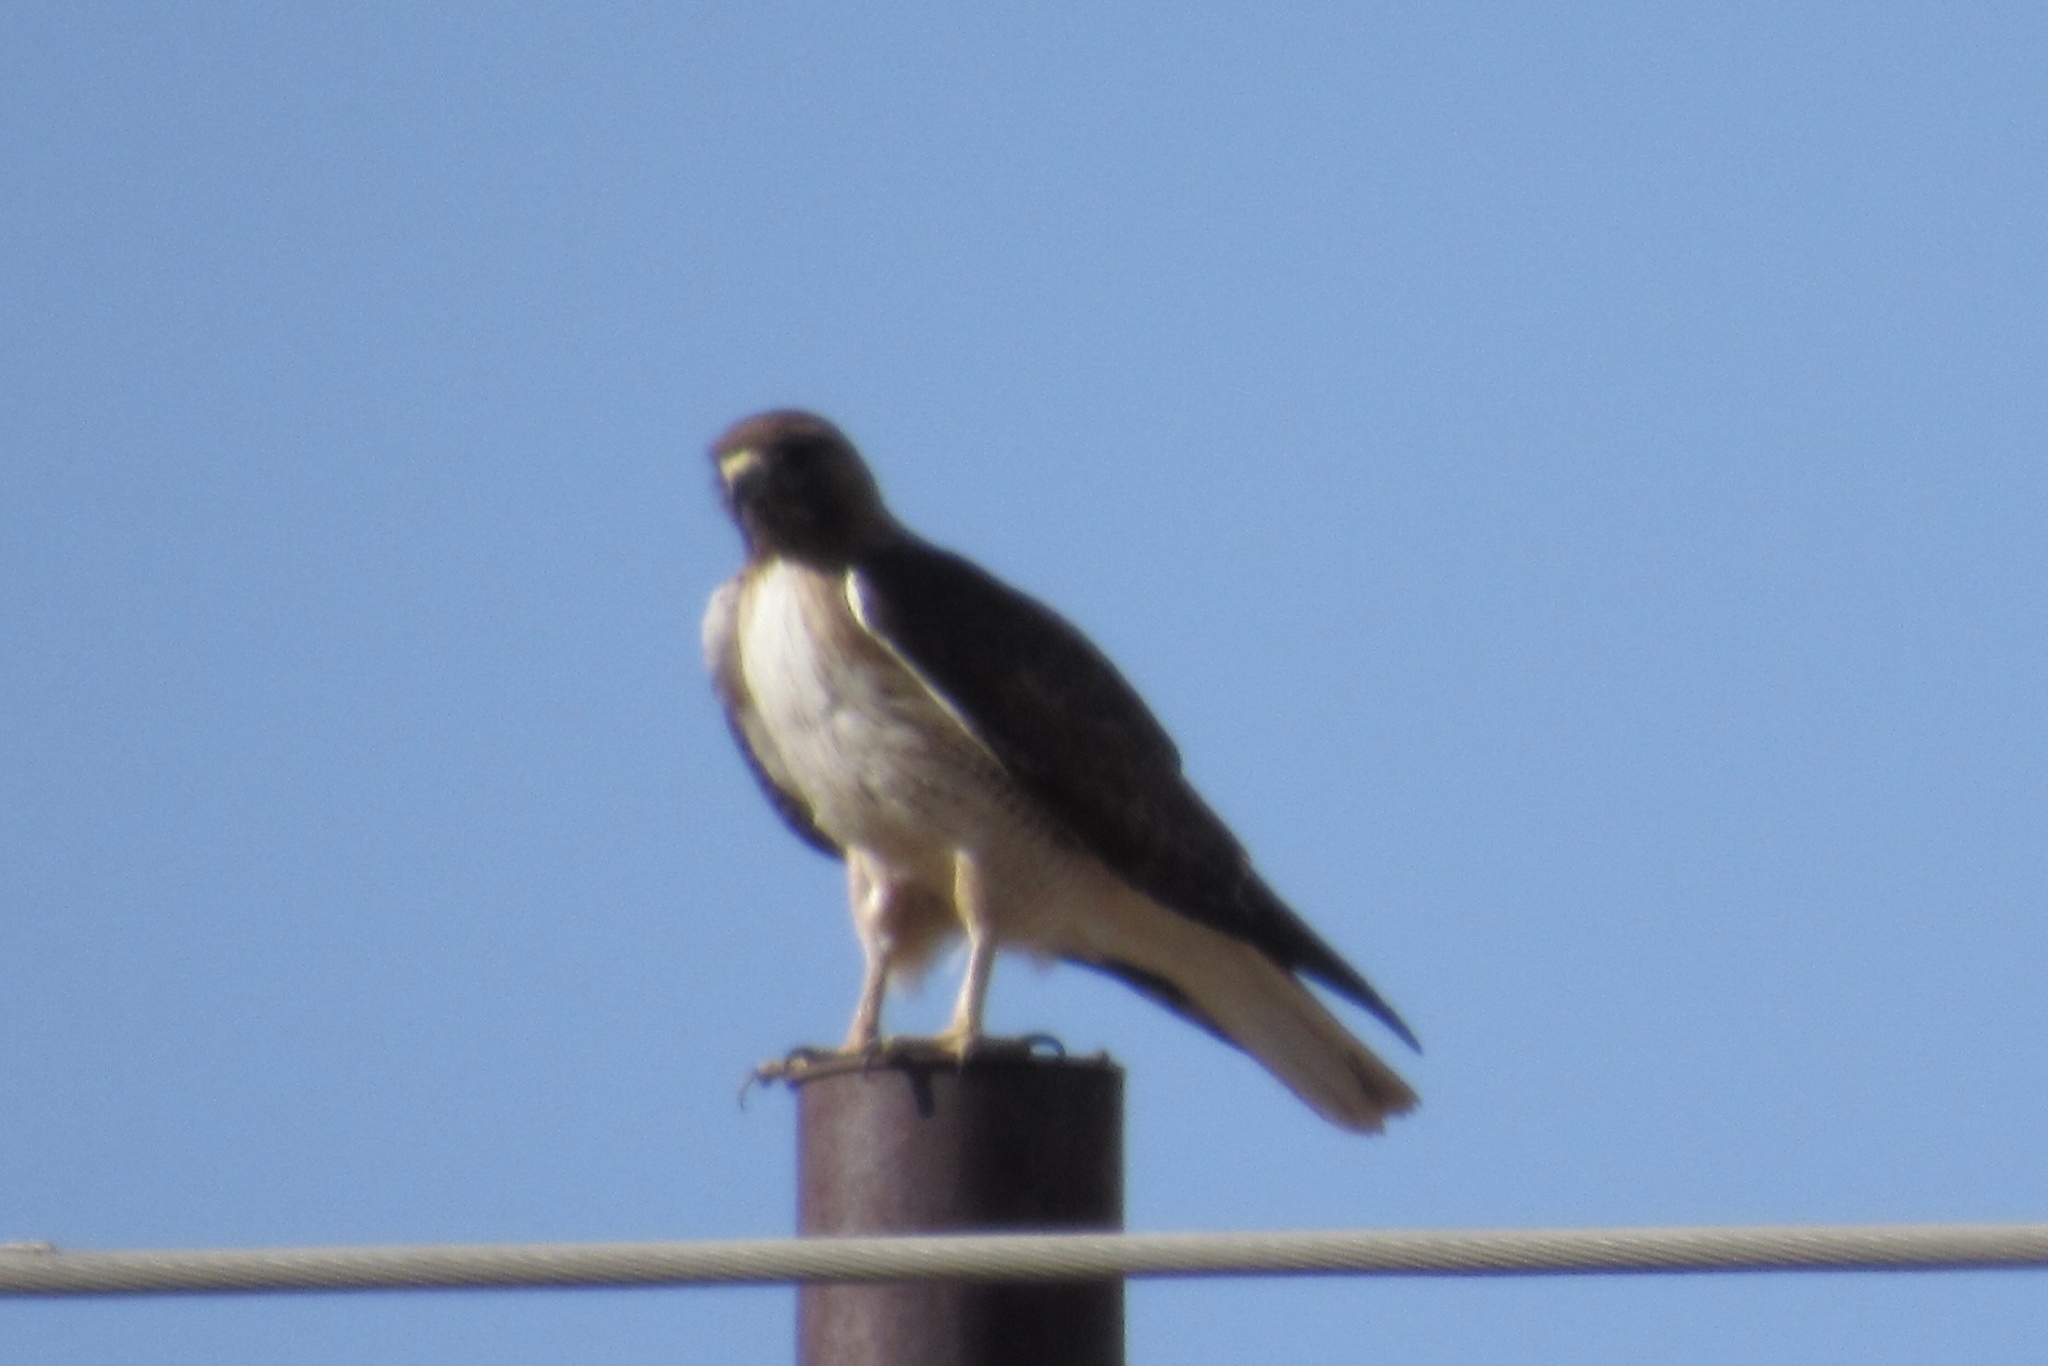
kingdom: Animalia
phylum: Chordata
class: Aves
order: Accipitriformes
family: Accipitridae
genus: Buteo
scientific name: Buteo jamaicensis
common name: Red-tailed hawk
